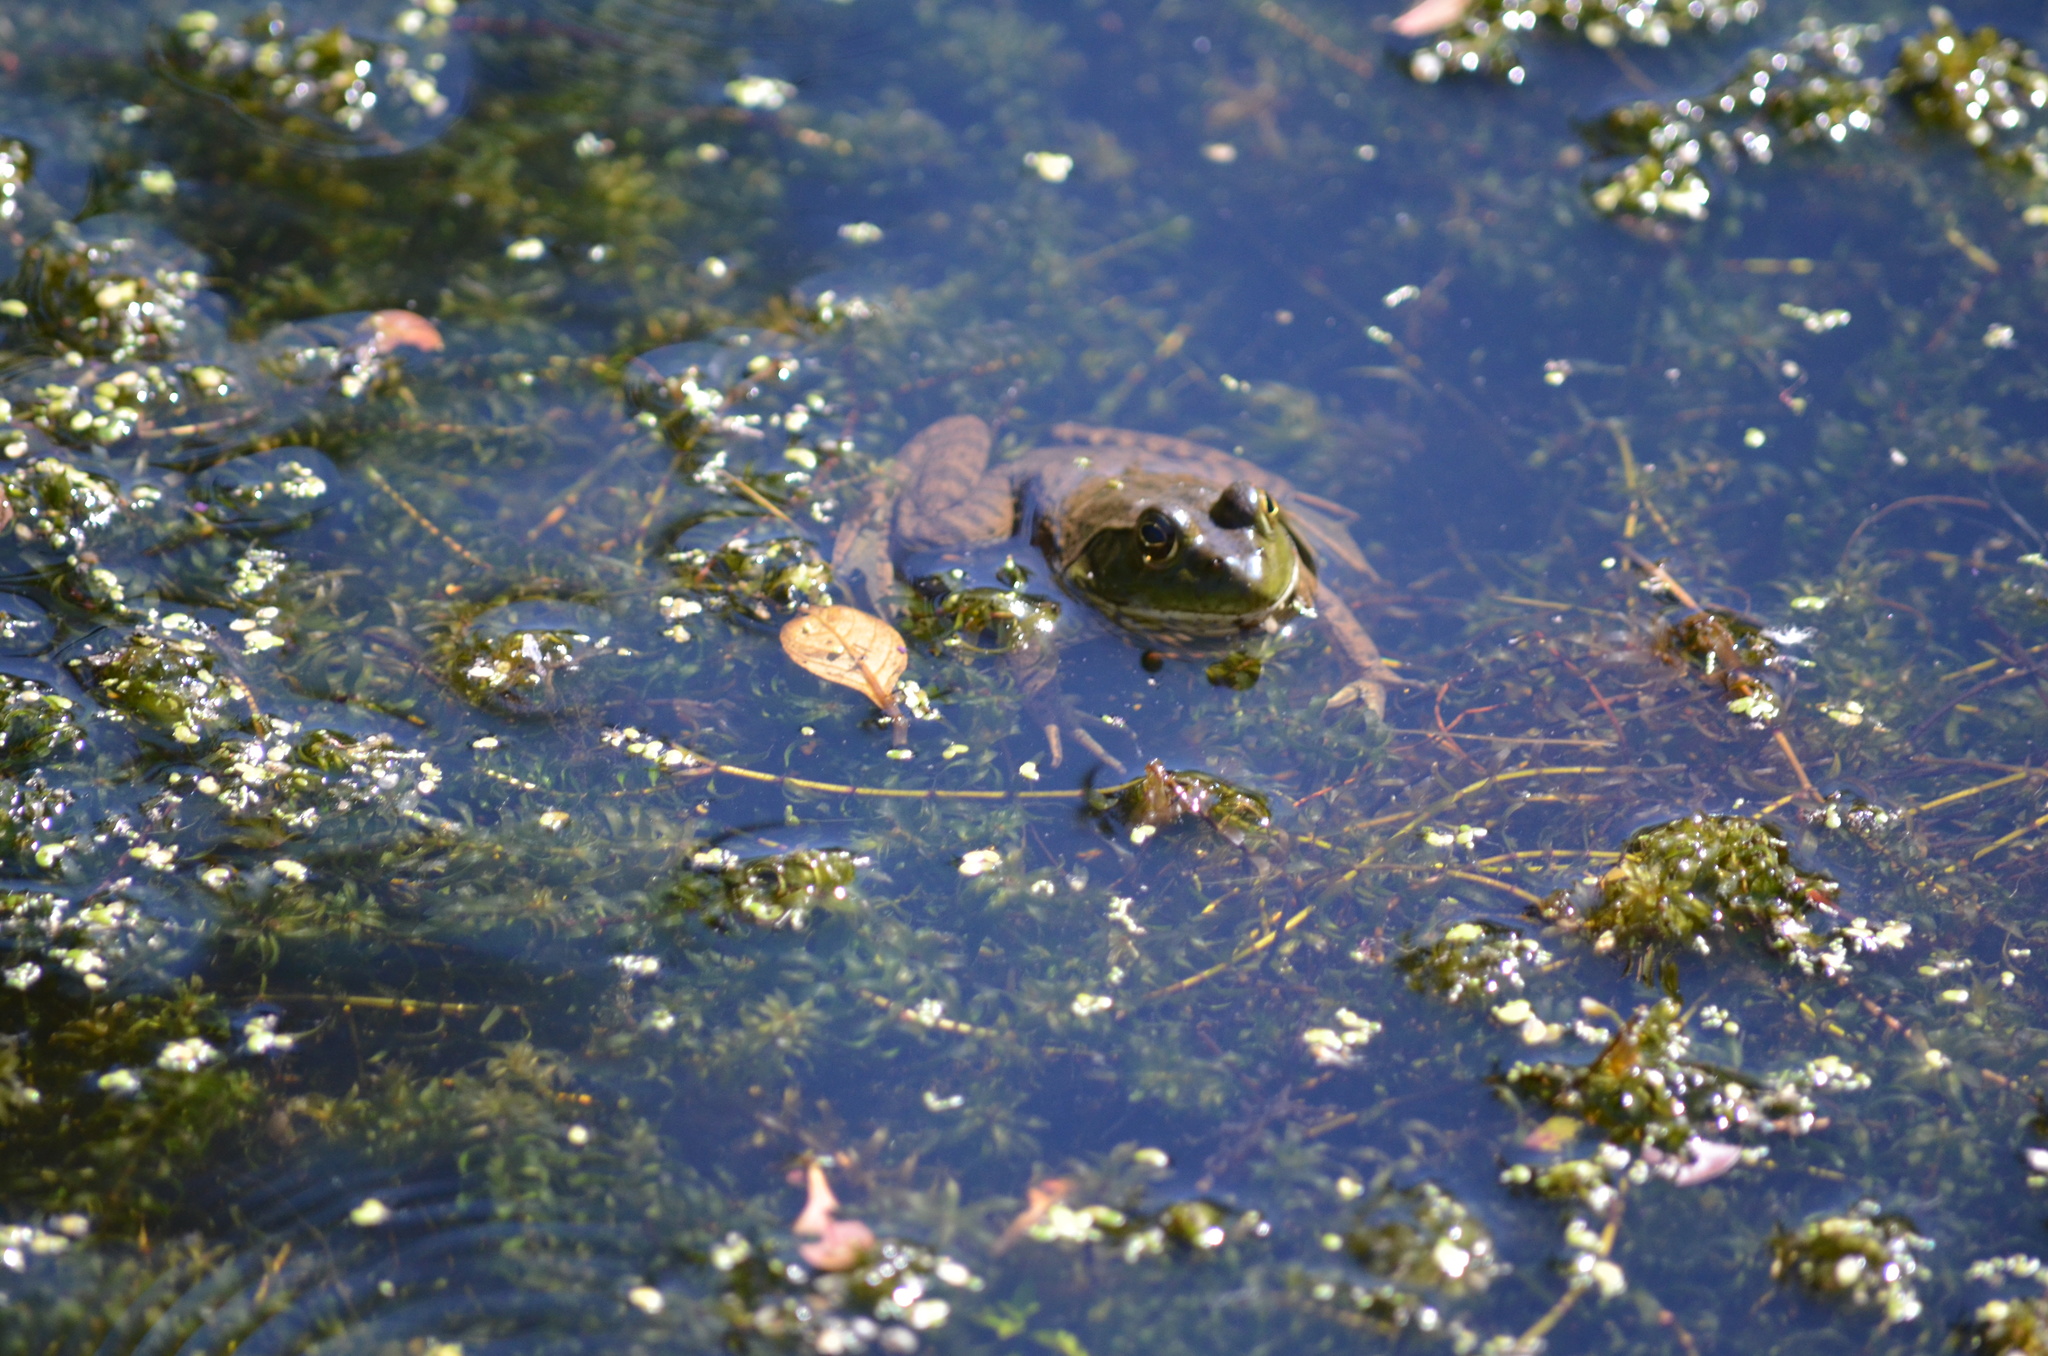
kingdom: Animalia
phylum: Chordata
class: Amphibia
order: Anura
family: Ranidae
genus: Lithobates
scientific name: Lithobates catesbeianus
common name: American bullfrog
